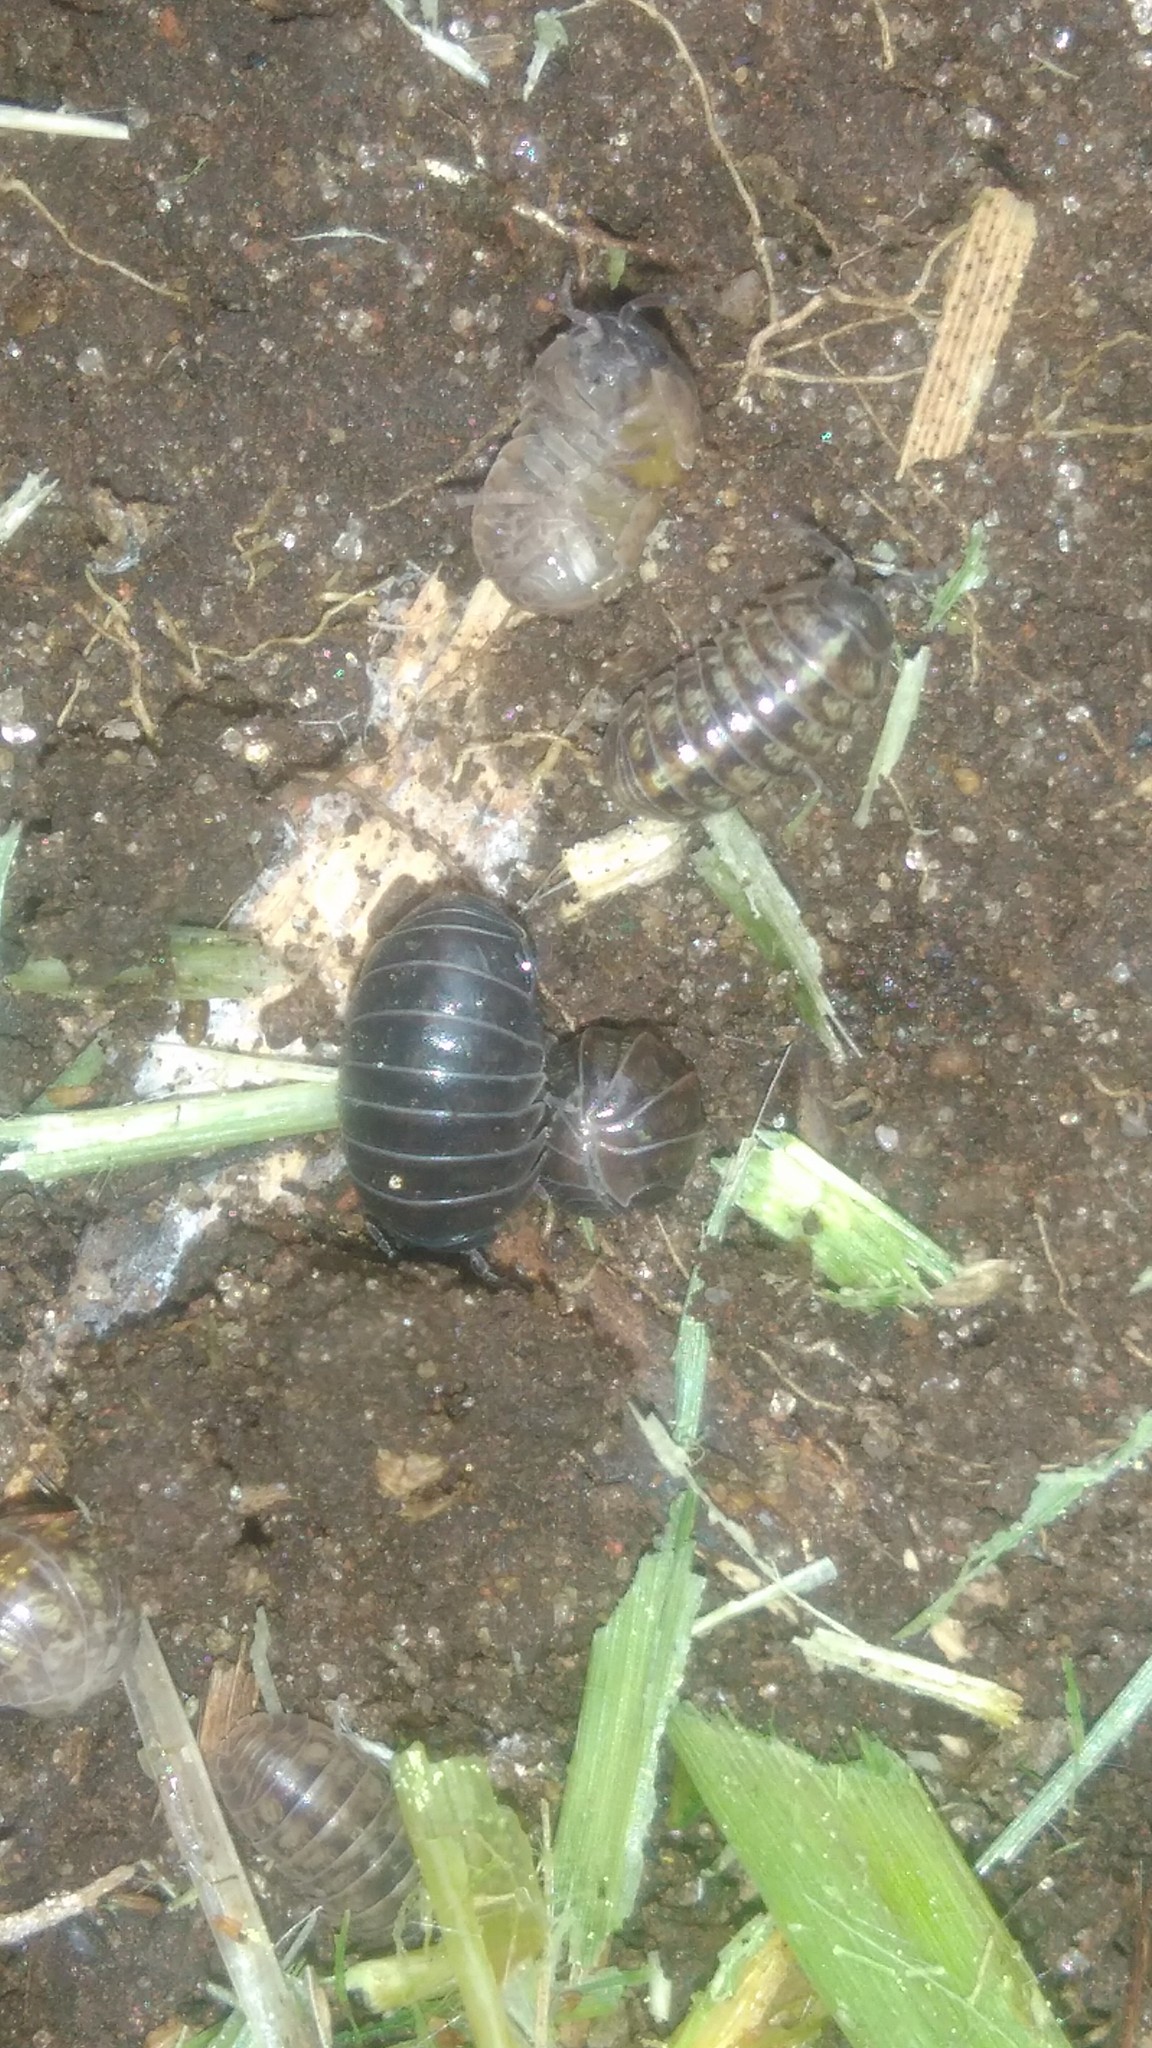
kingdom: Animalia
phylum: Arthropoda
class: Malacostraca
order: Isopoda
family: Armadillidiidae
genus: Armadillidium
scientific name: Armadillidium vulgare
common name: Common pill woodlouse
